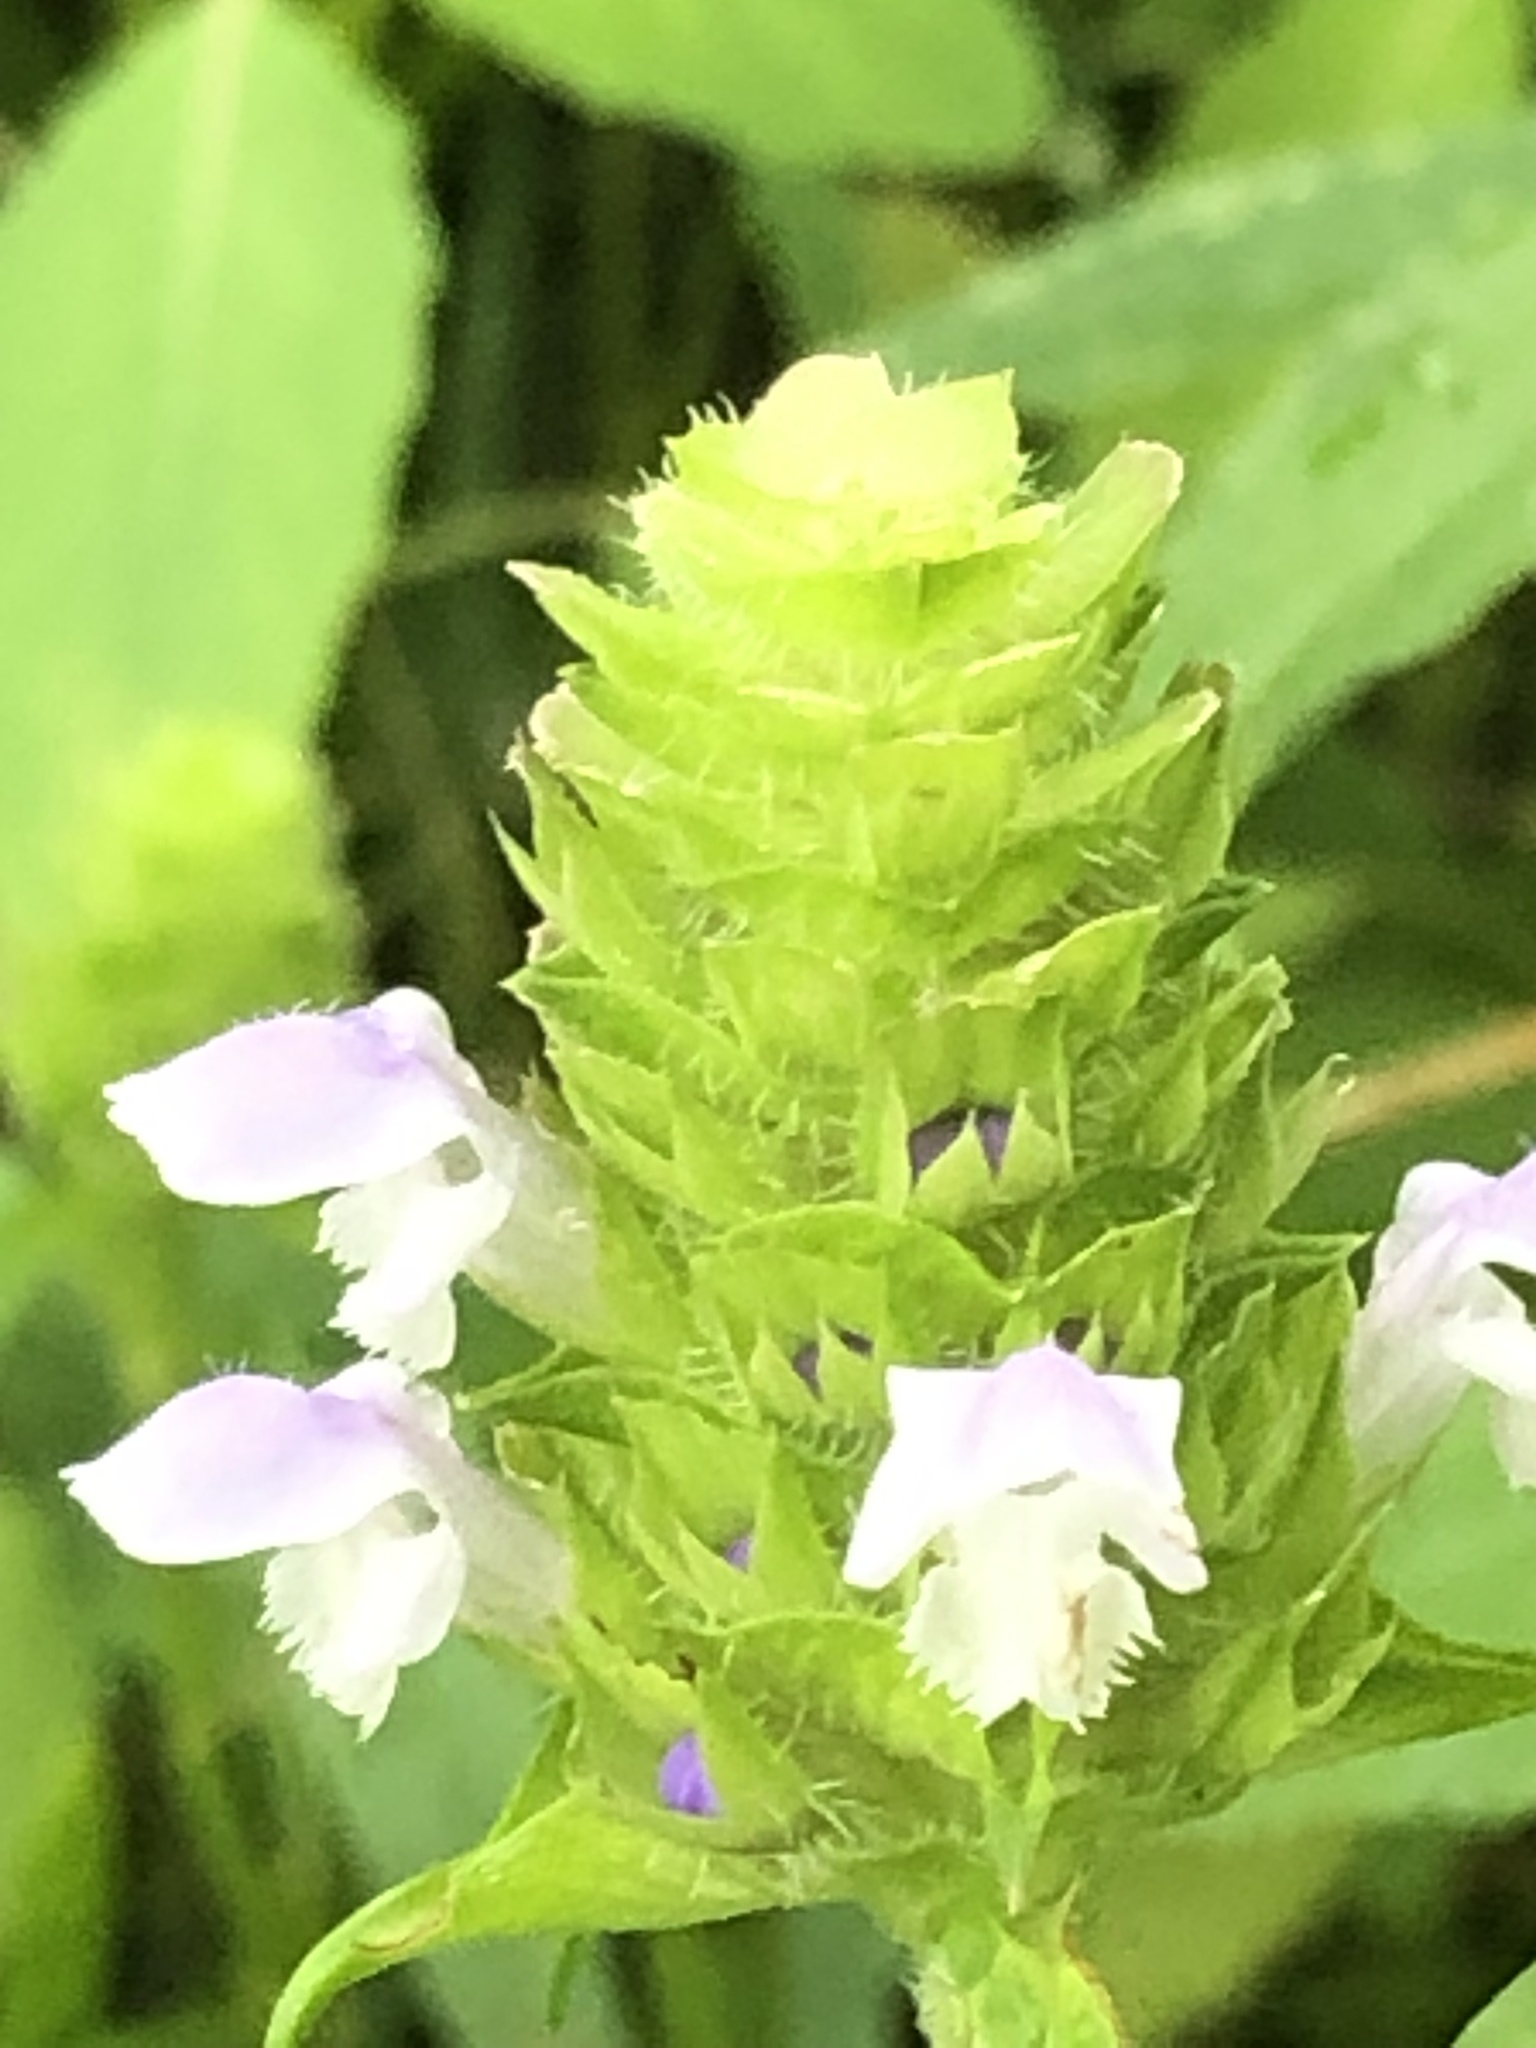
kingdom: Plantae
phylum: Tracheophyta
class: Magnoliopsida
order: Lamiales
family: Lamiaceae
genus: Prunella
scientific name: Prunella vulgaris
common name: Heal-all
